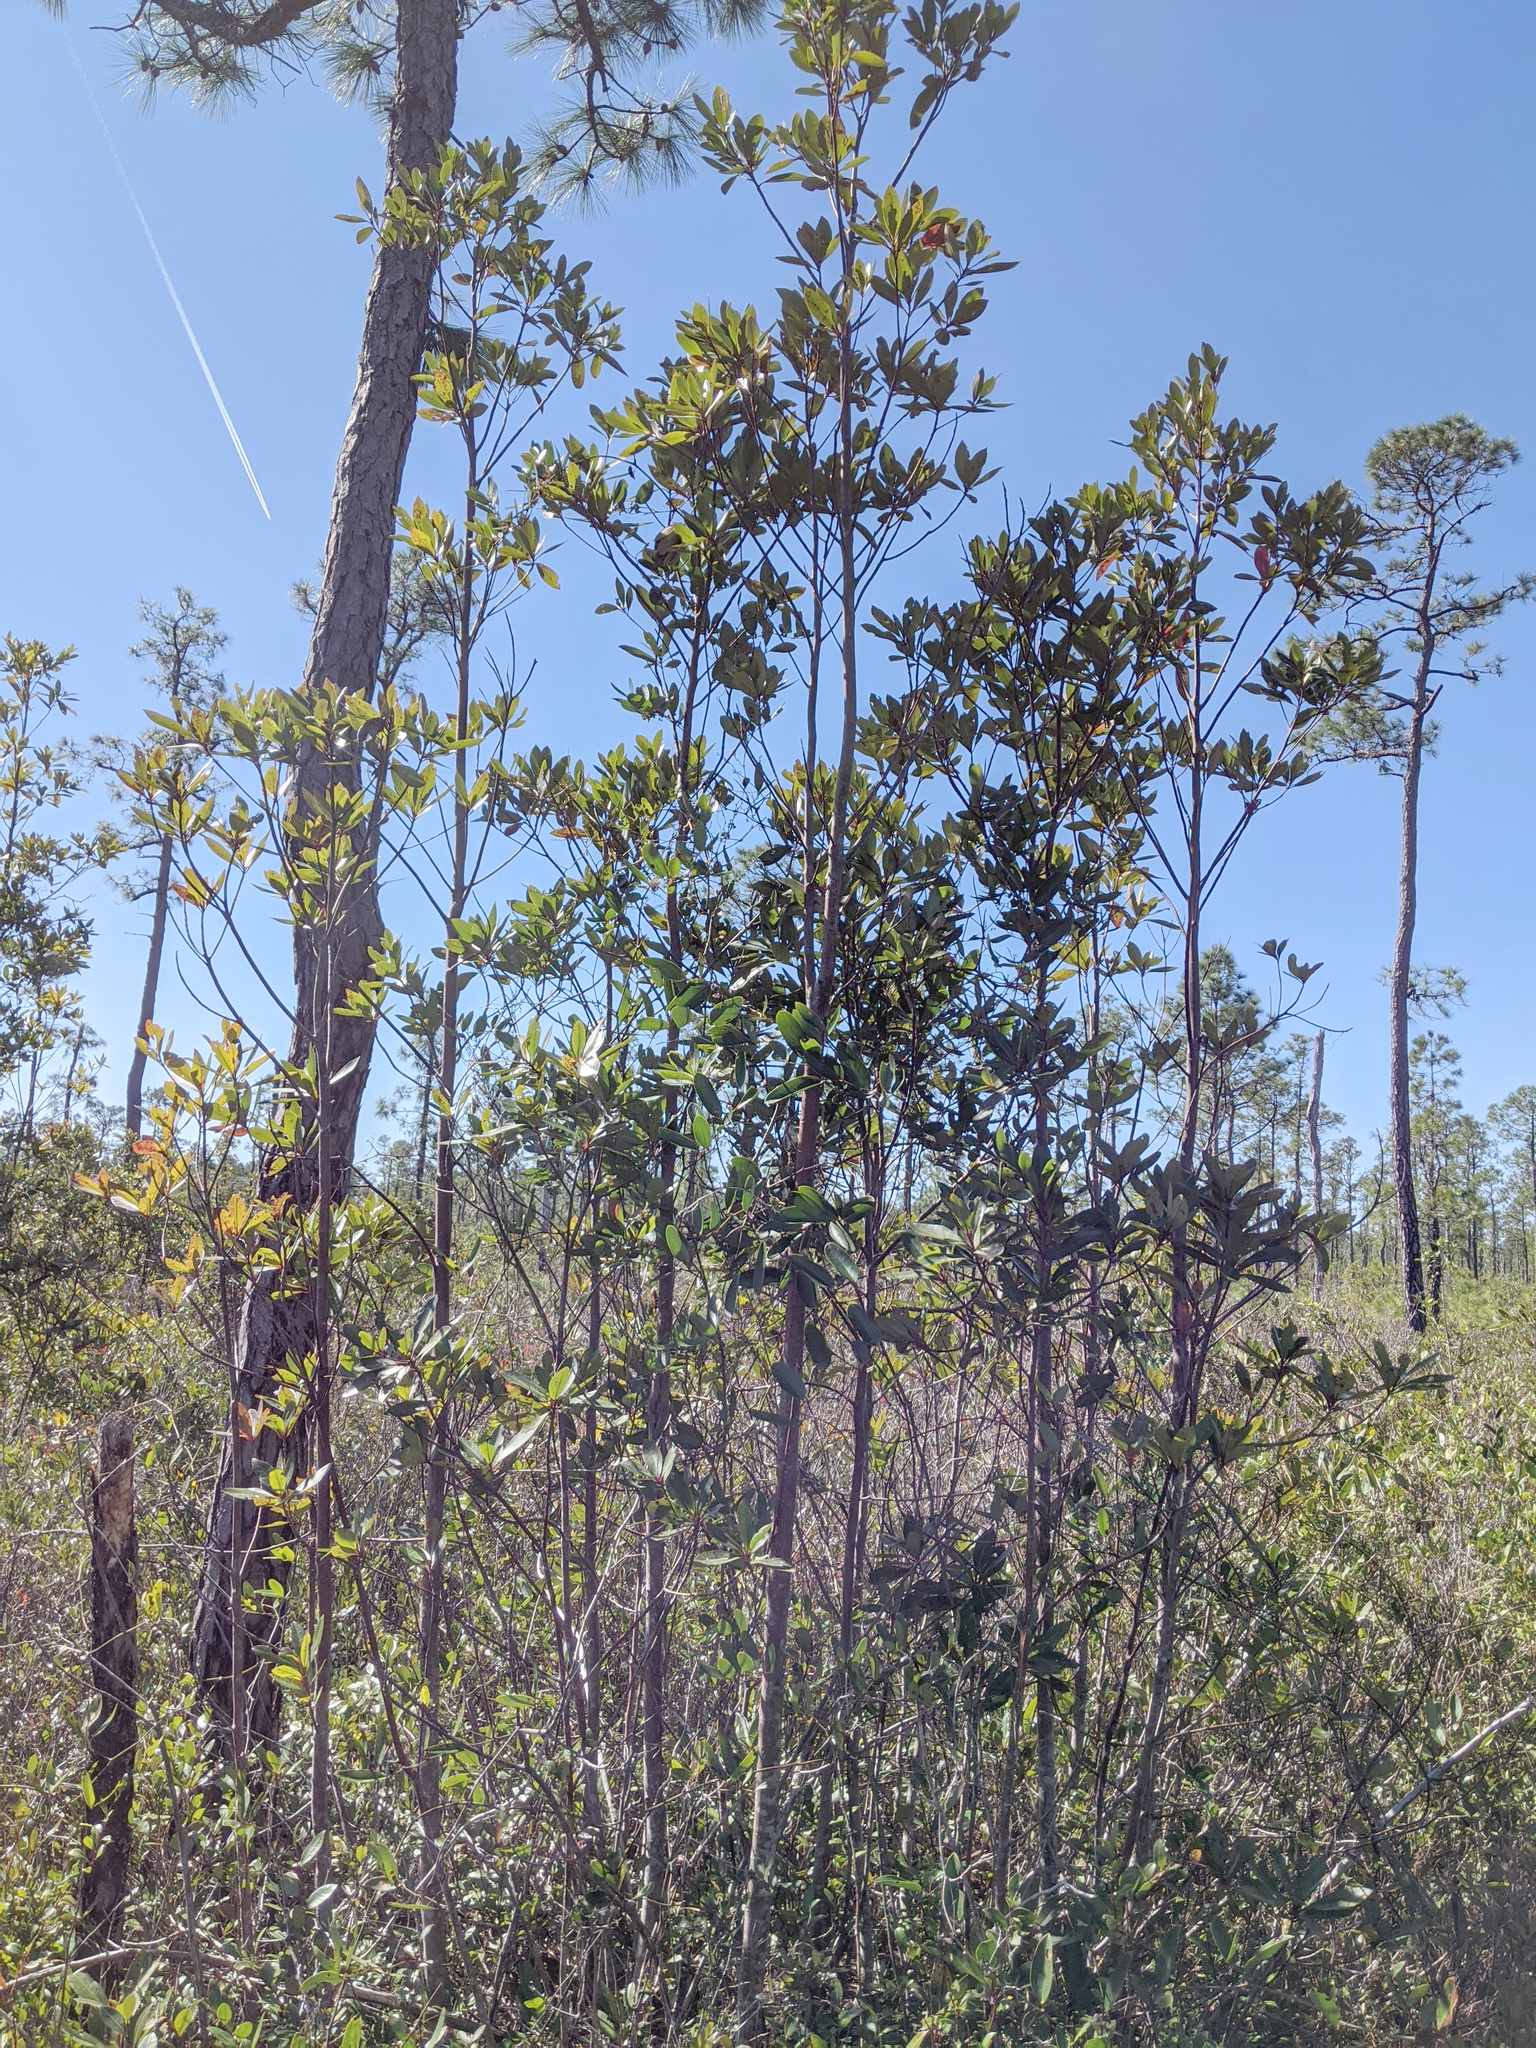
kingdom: Plantae
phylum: Tracheophyta
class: Magnoliopsida
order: Ericales
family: Theaceae
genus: Gordonia
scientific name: Gordonia lasianthus
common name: Loblolly bay
